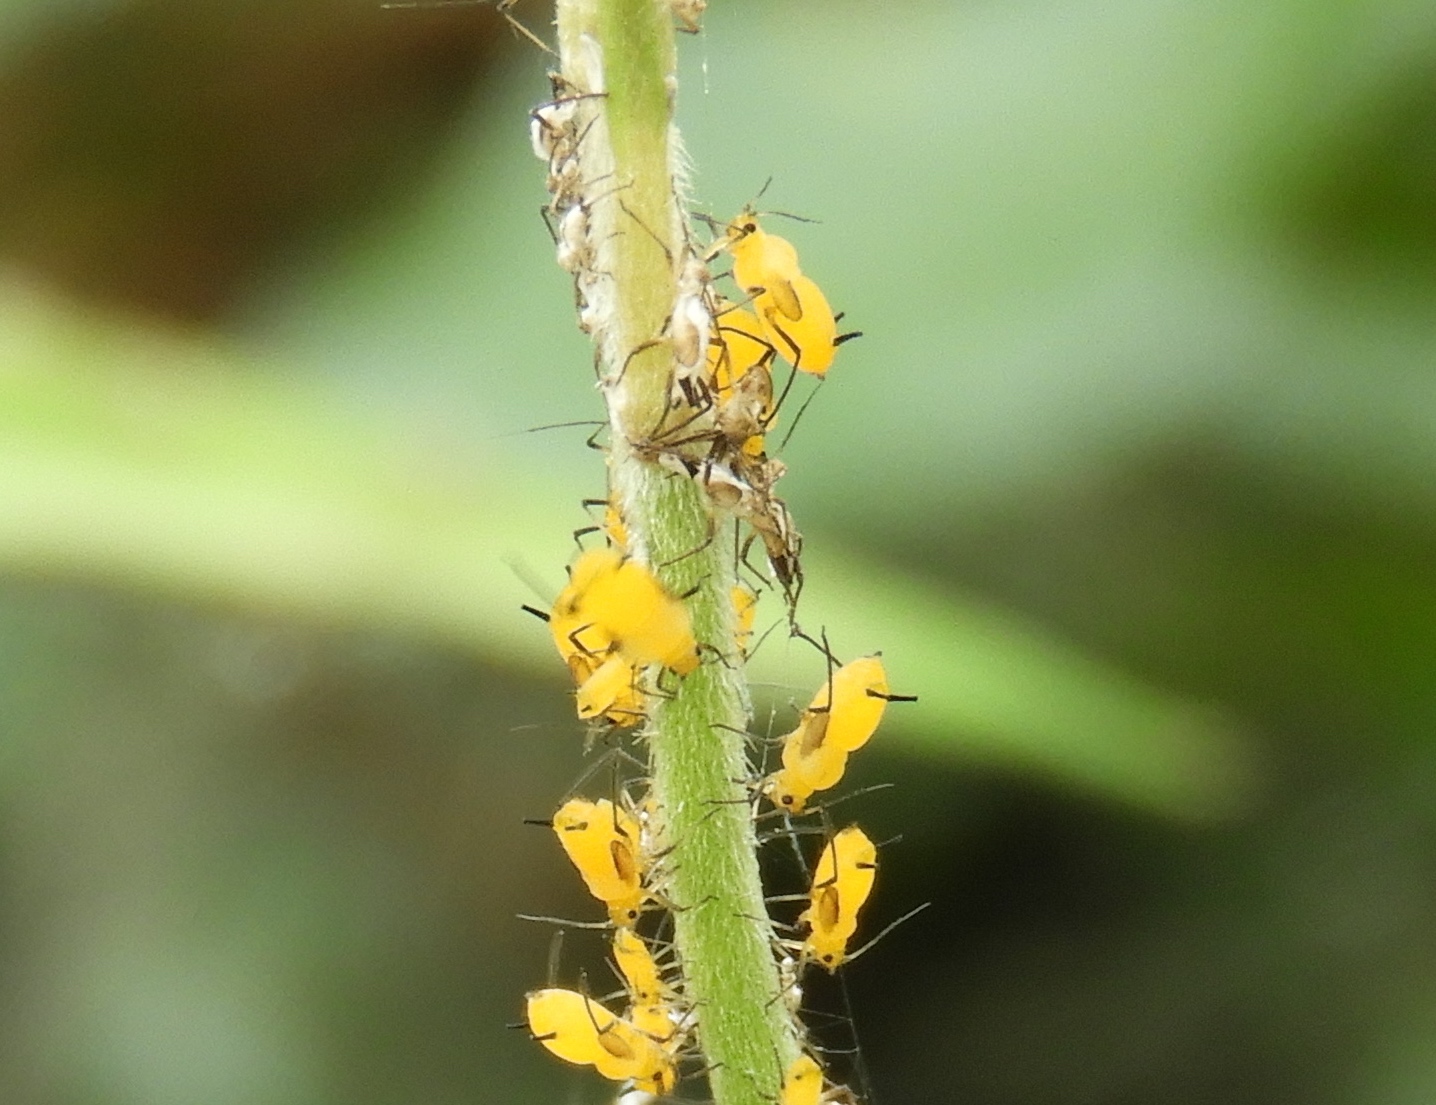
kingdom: Animalia
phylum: Arthropoda
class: Insecta
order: Hemiptera
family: Aphididae
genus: Aphis
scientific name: Aphis nerii
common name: Oleander aphid
